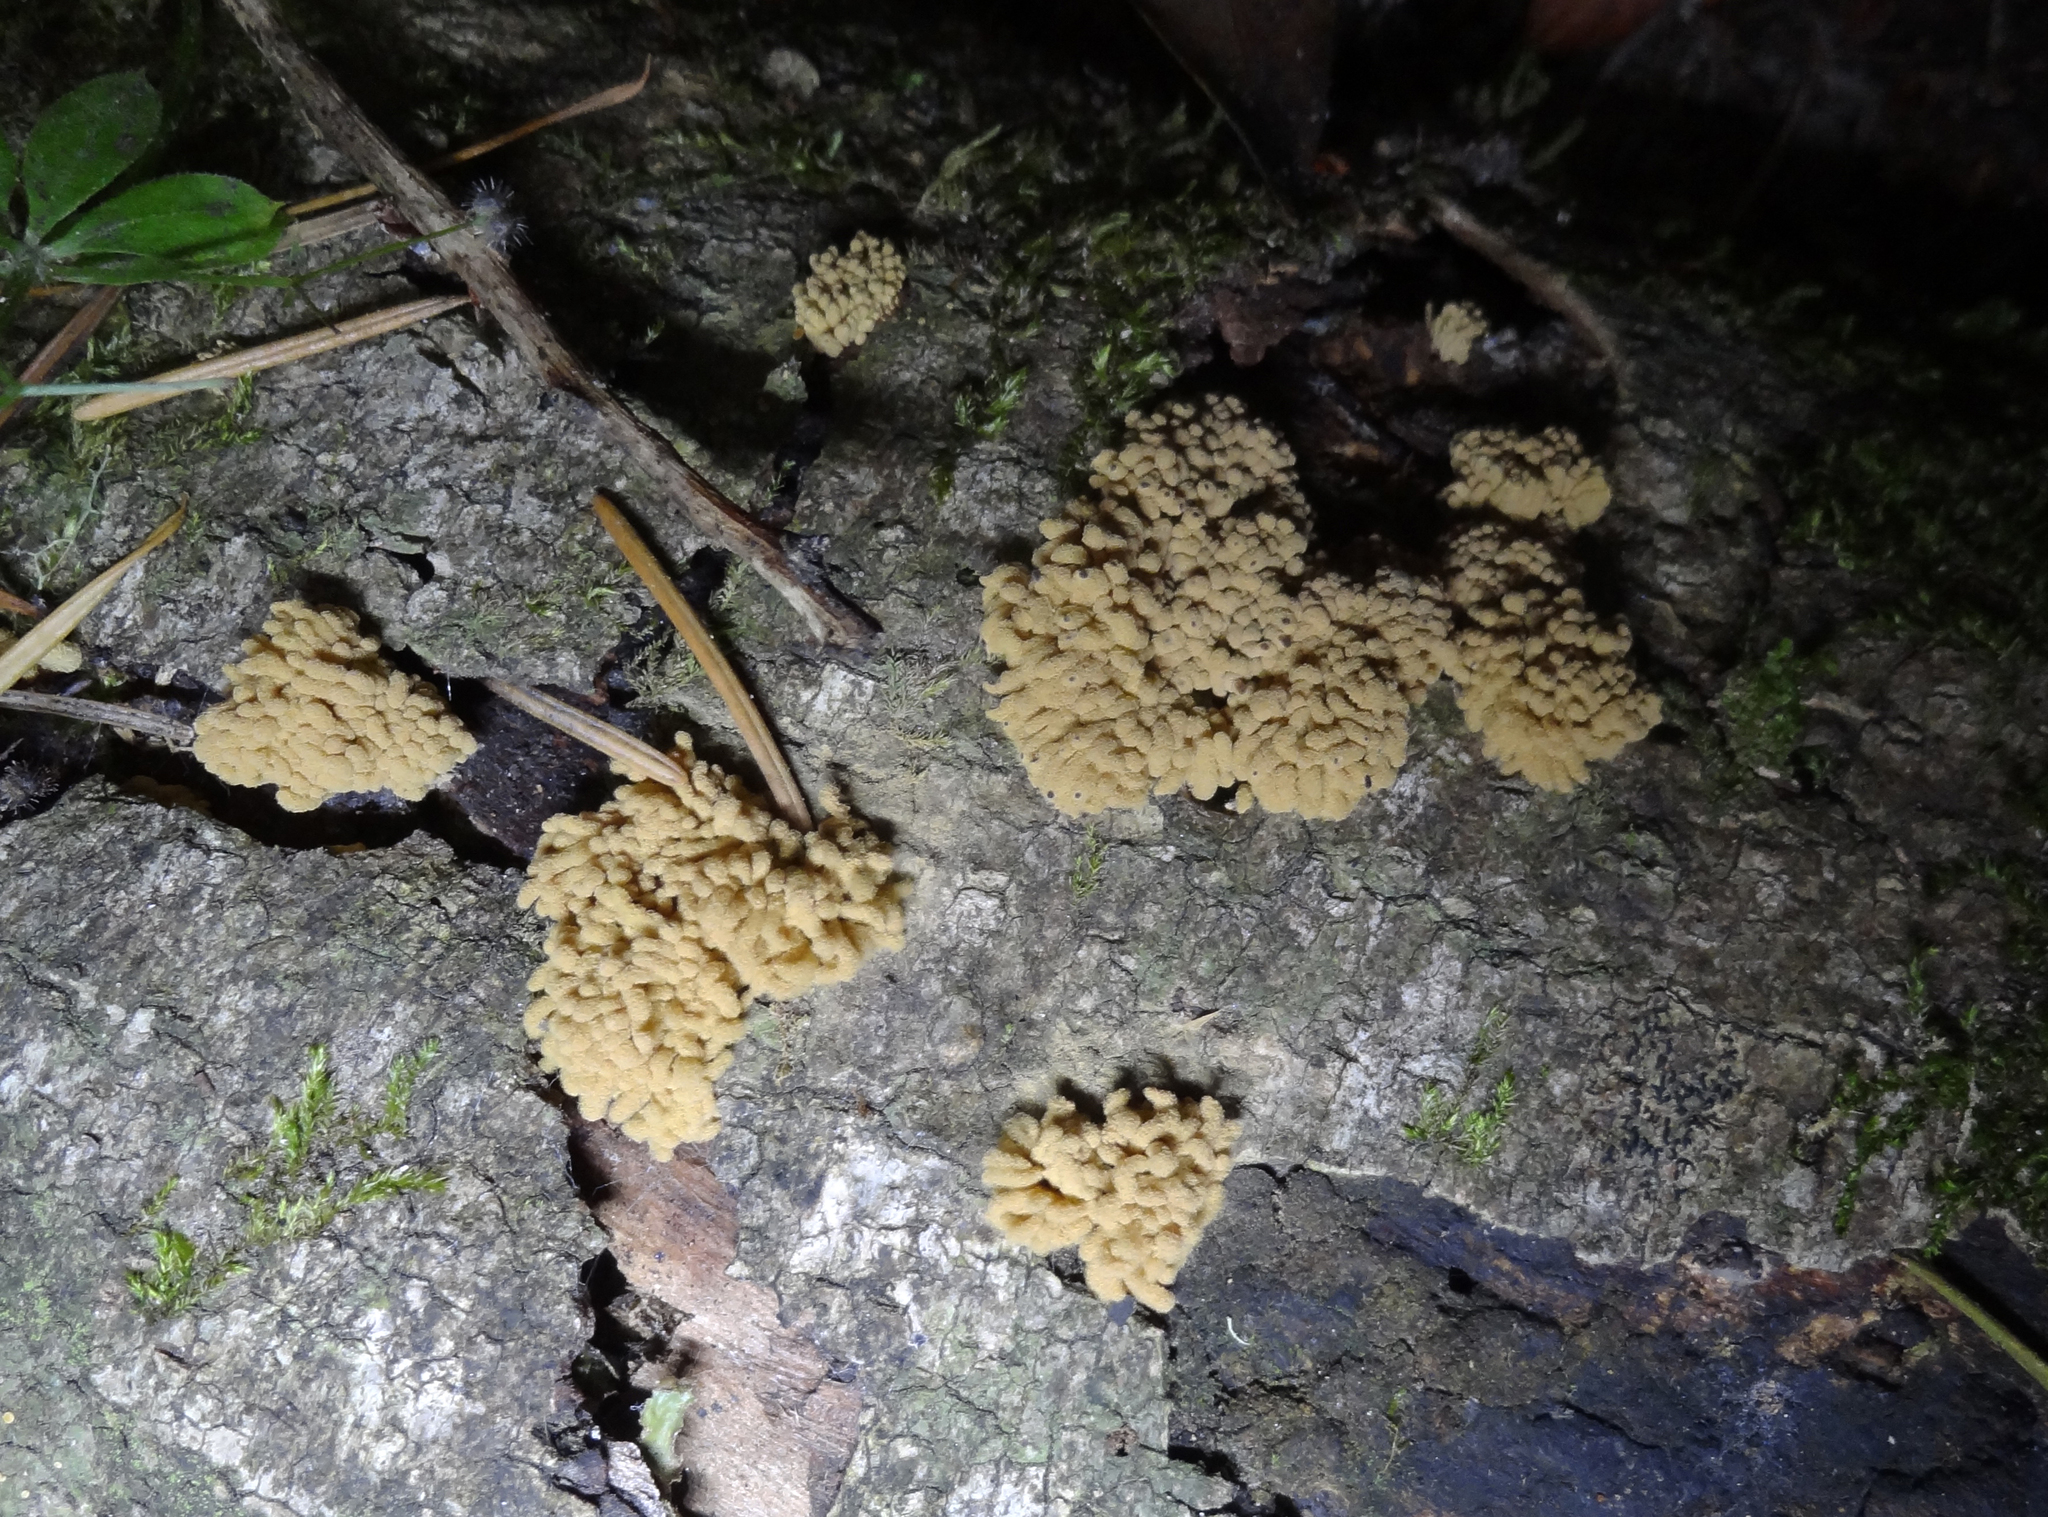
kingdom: Protozoa
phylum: Mycetozoa
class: Myxomycetes
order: Trichiales
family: Arcyriaceae
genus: Arcyria
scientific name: Arcyria obvelata
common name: Yellow carnival candy slime
